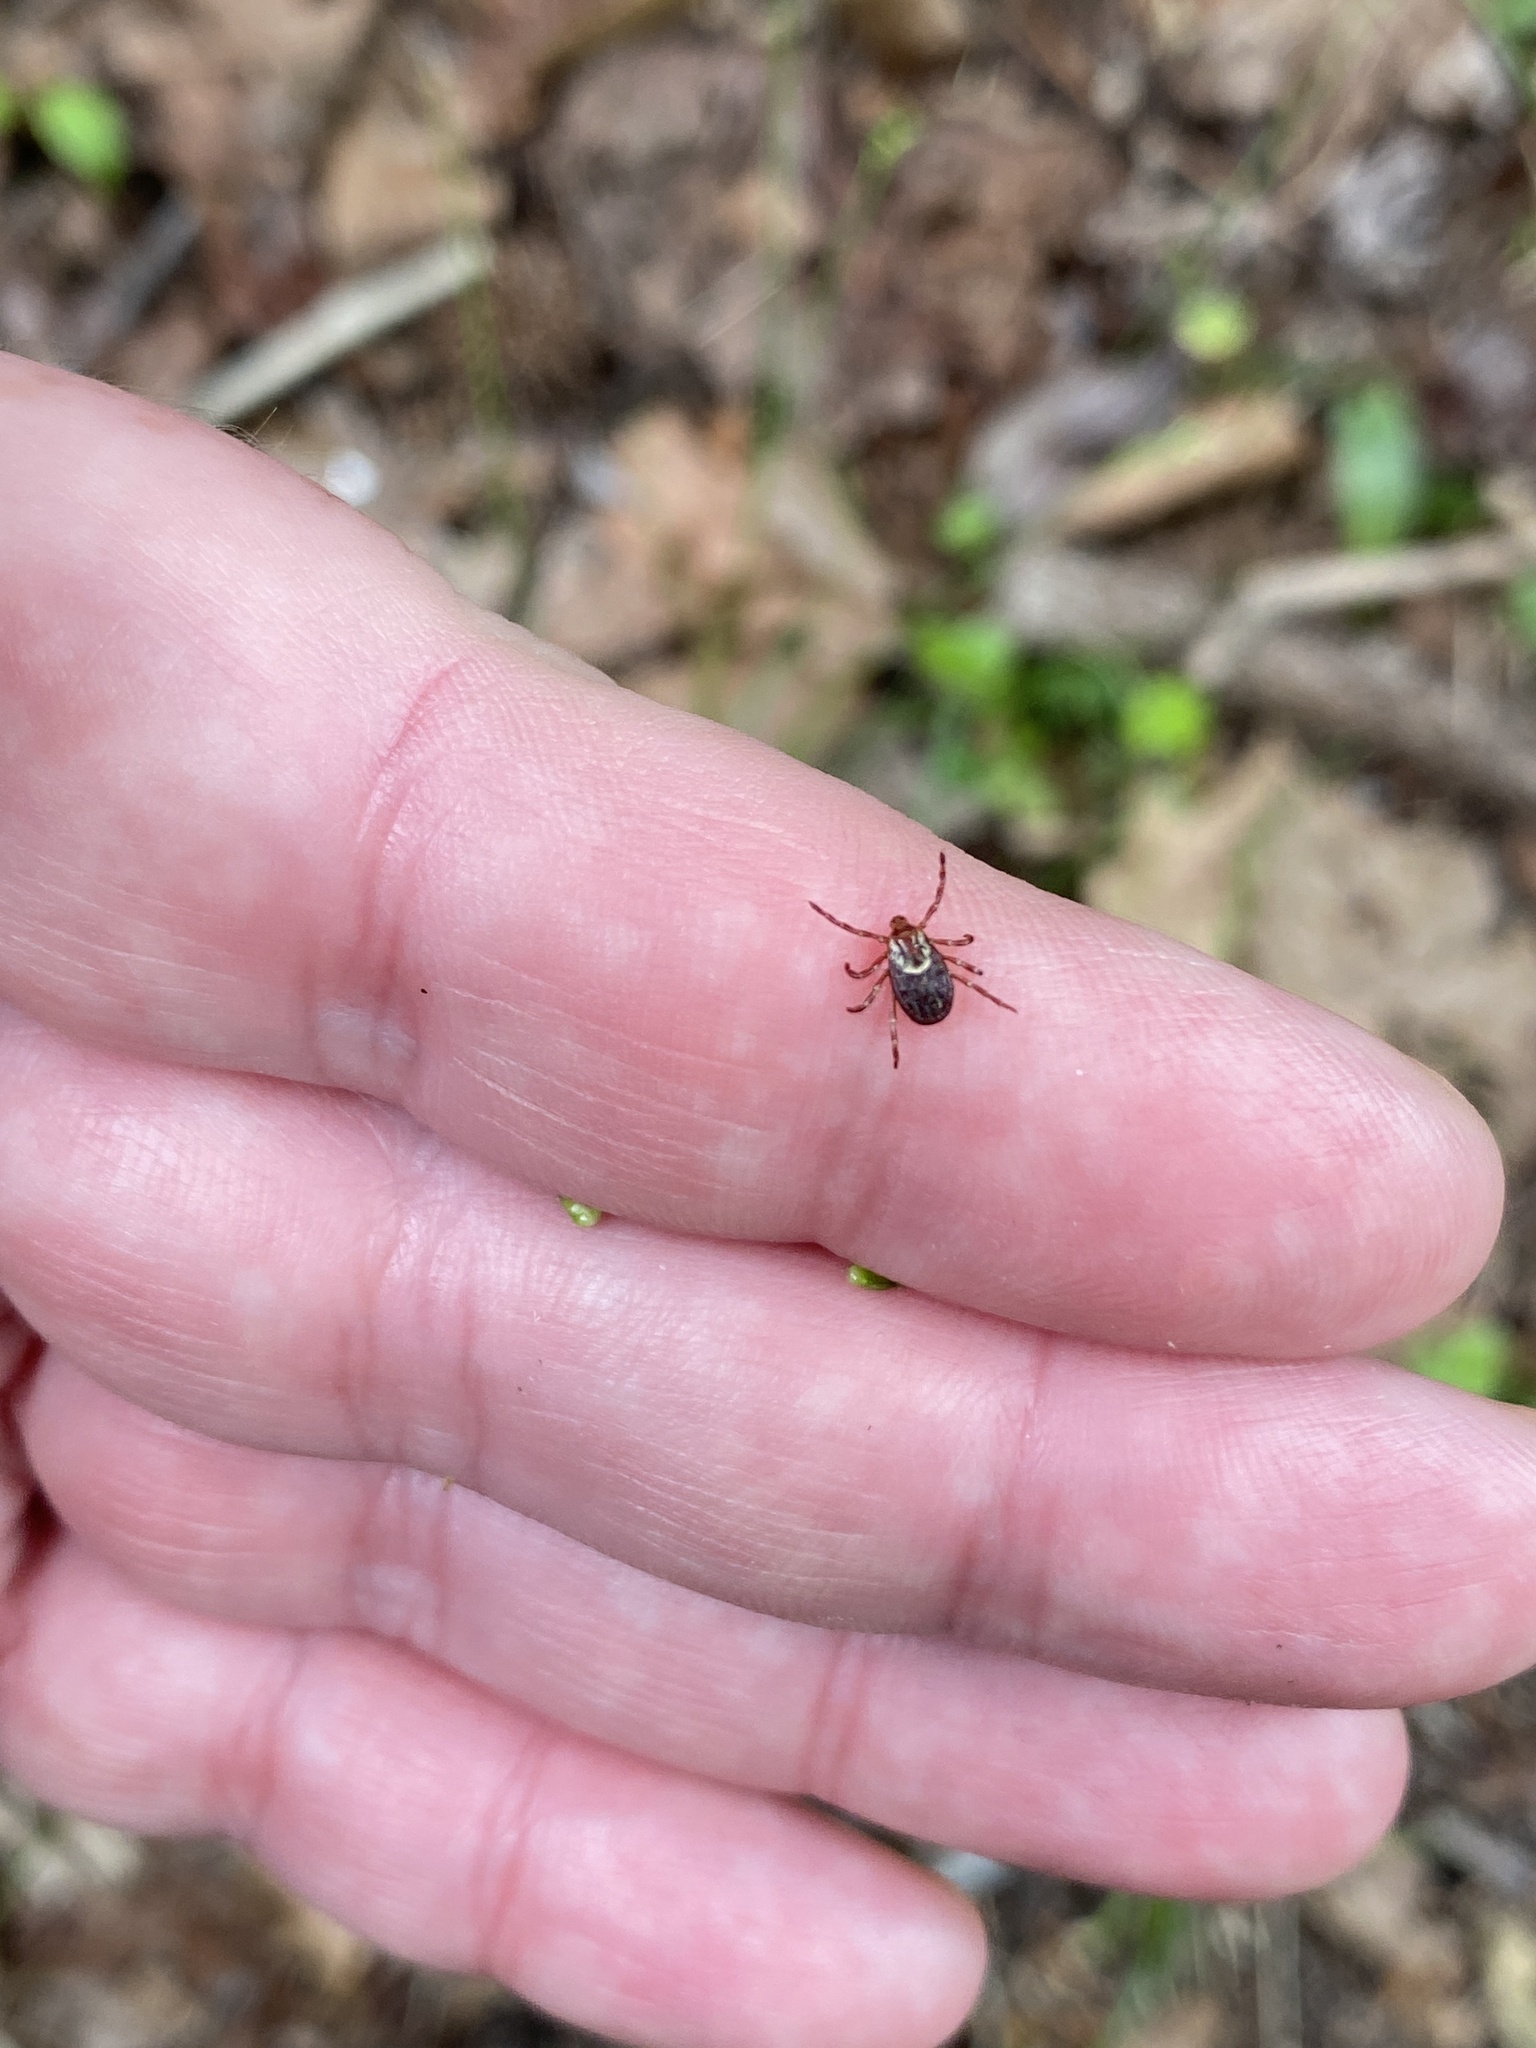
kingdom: Animalia
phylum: Arthropoda
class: Arachnida
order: Ixodida
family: Ixodidae
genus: Dermacentor
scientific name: Dermacentor variabilis
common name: American dog tick
